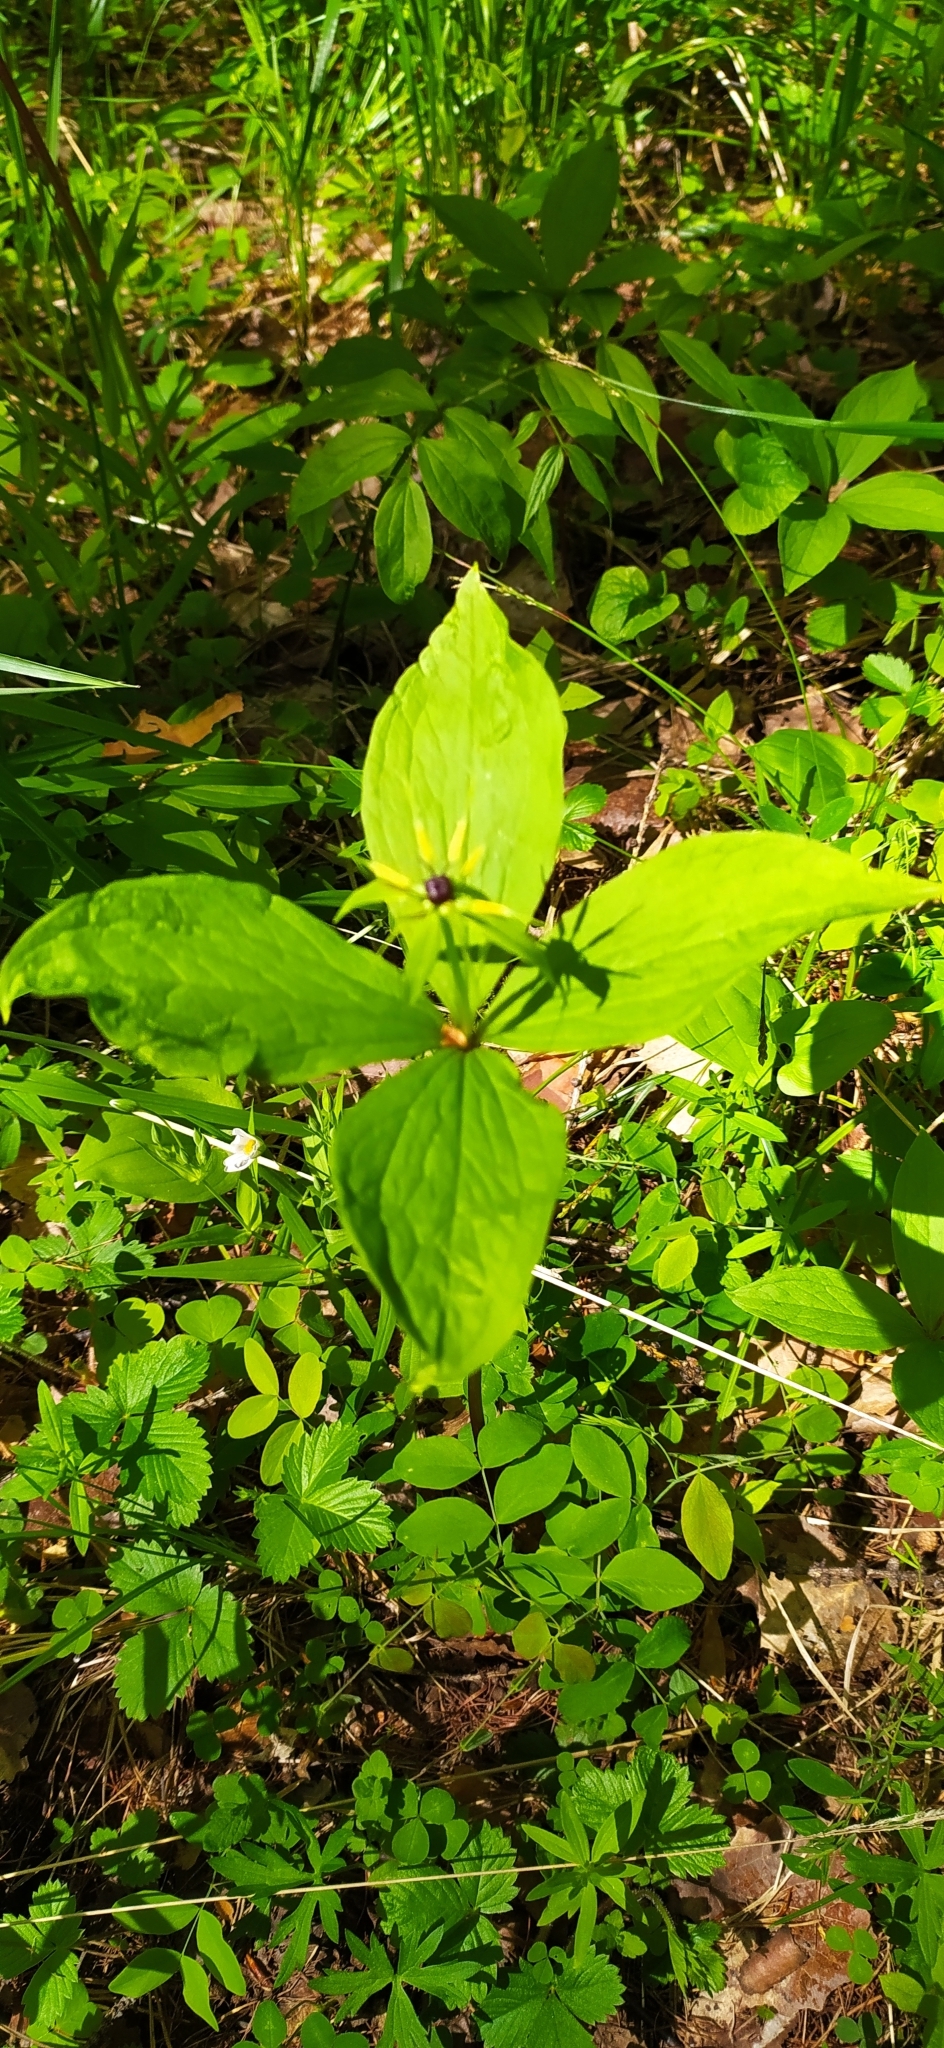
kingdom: Plantae
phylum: Tracheophyta
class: Liliopsida
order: Liliales
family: Melanthiaceae
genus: Paris
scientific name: Paris quadrifolia
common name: Herb-paris
